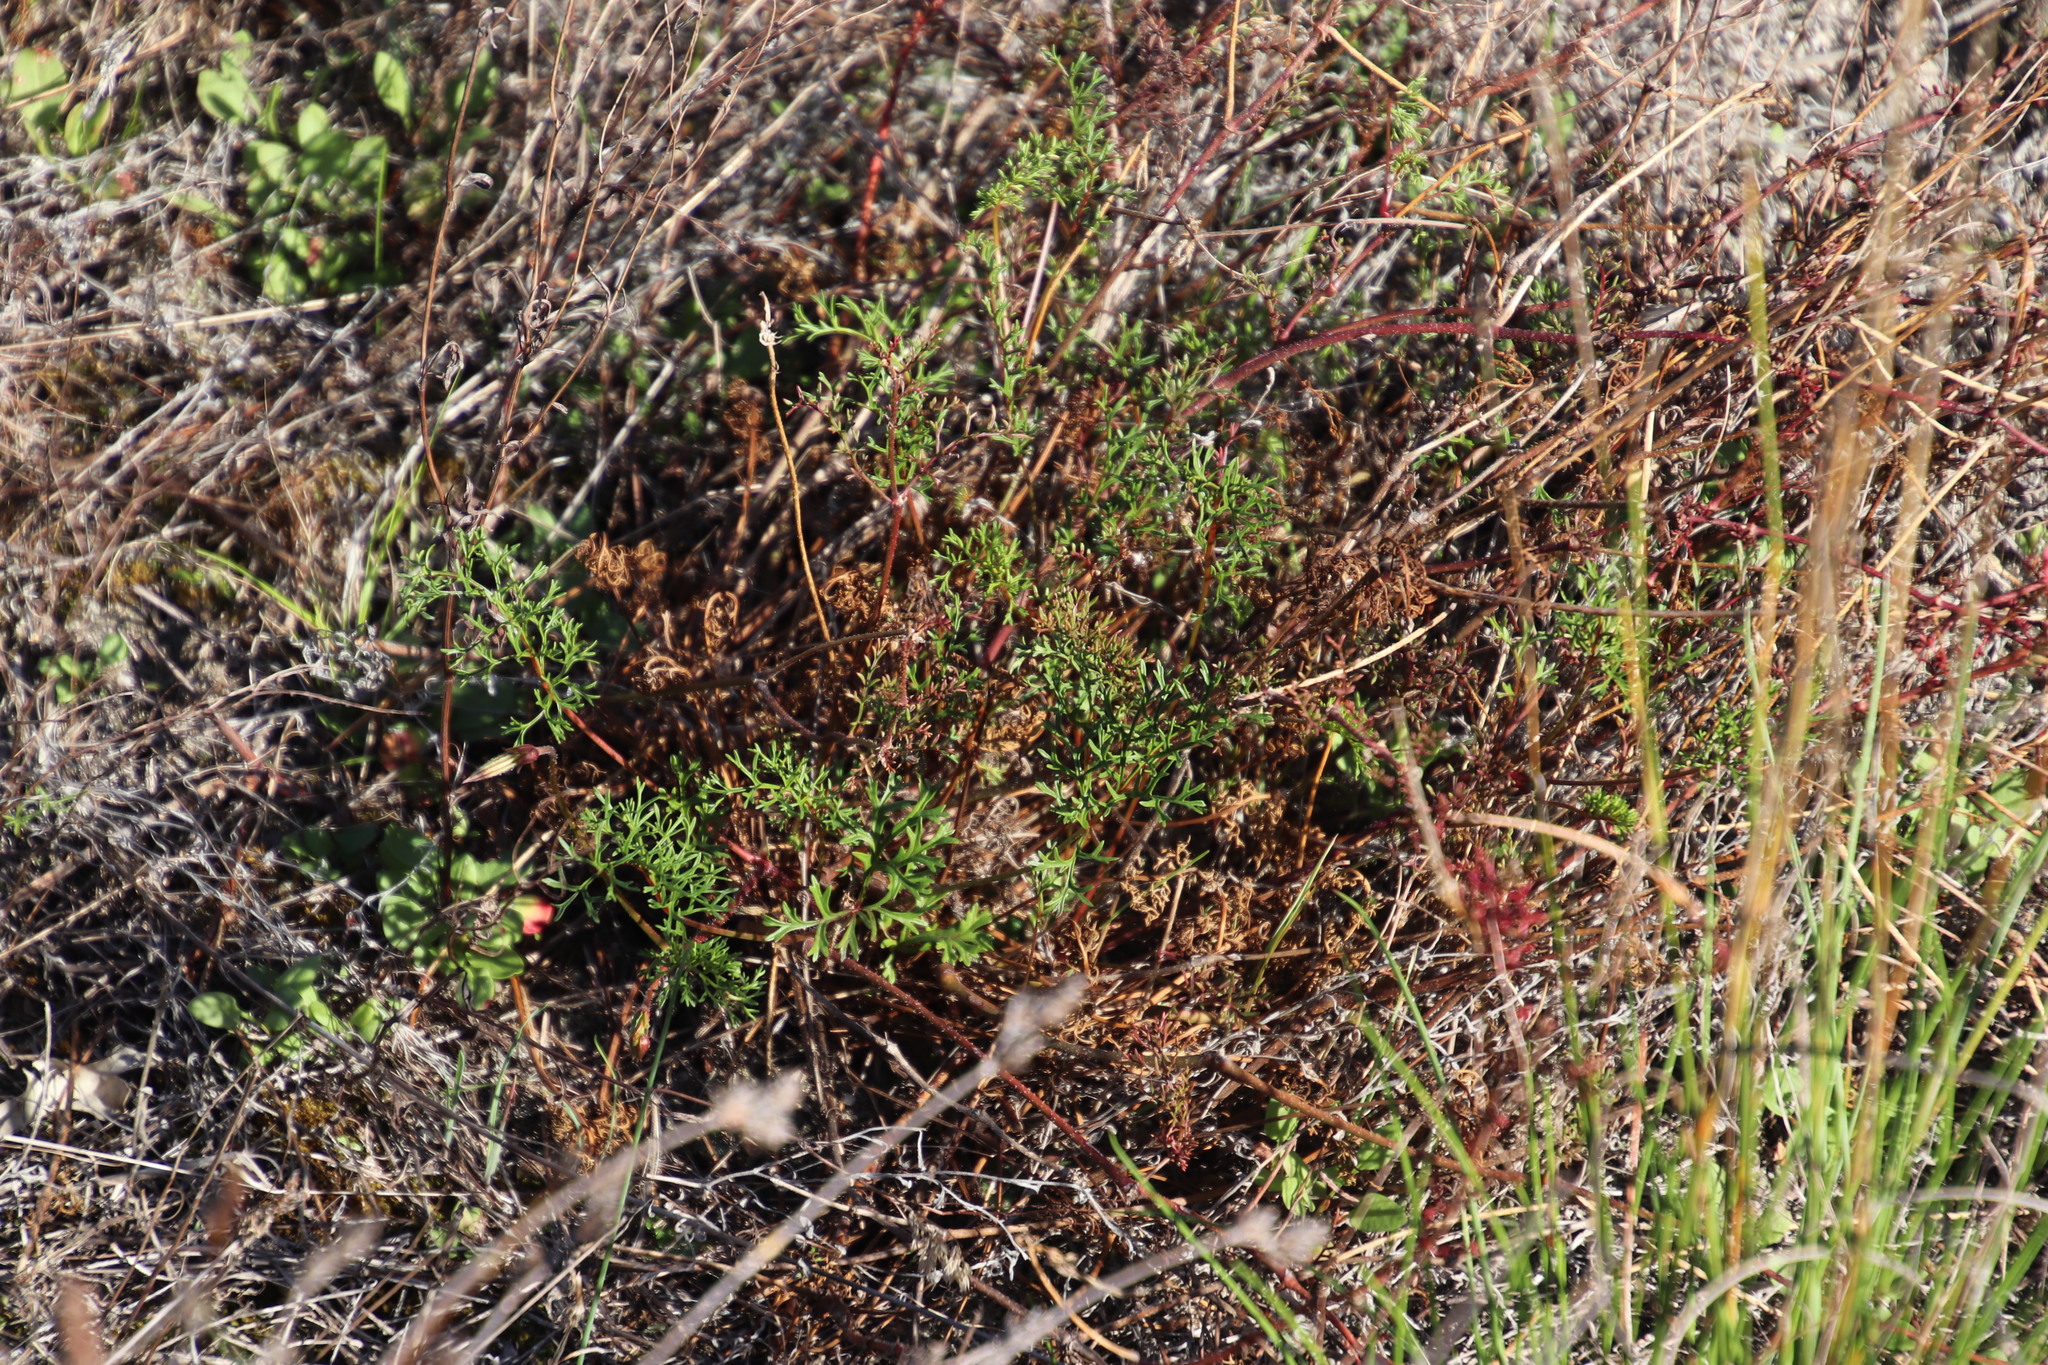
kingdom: Plantae
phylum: Tracheophyta
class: Magnoliopsida
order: Geraniales
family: Geraniaceae
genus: Pelargonium
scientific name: Pelargonium myrrhifolium
